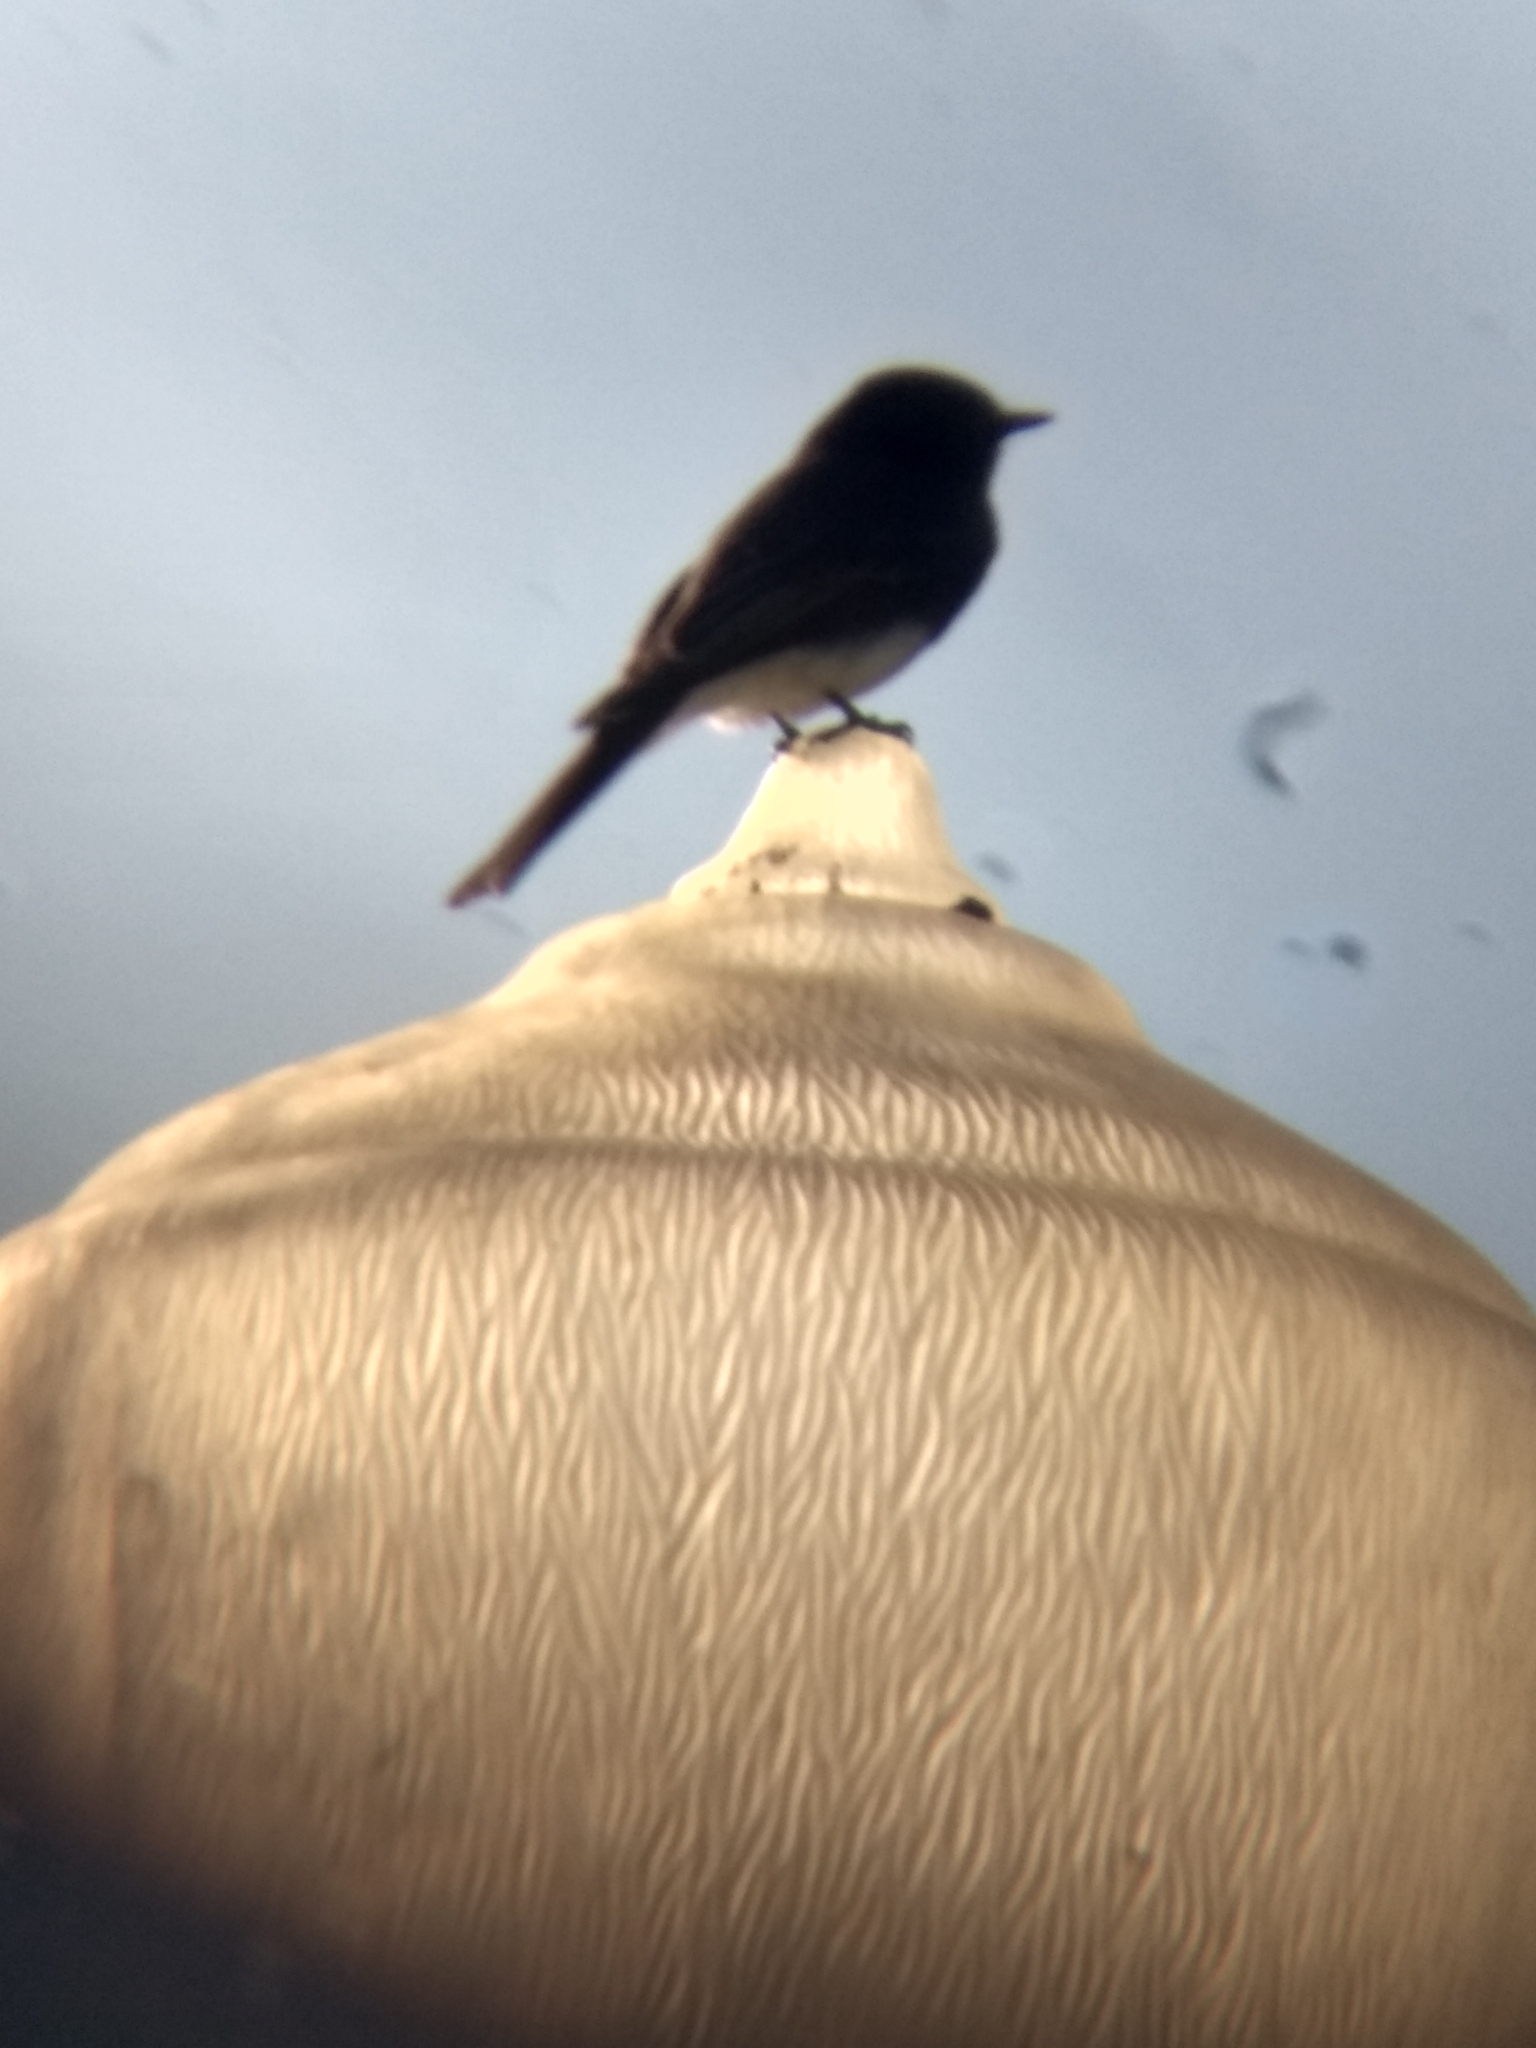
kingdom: Animalia
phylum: Chordata
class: Aves
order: Passeriformes
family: Tyrannidae
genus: Sayornis
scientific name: Sayornis nigricans
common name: Black phoebe
